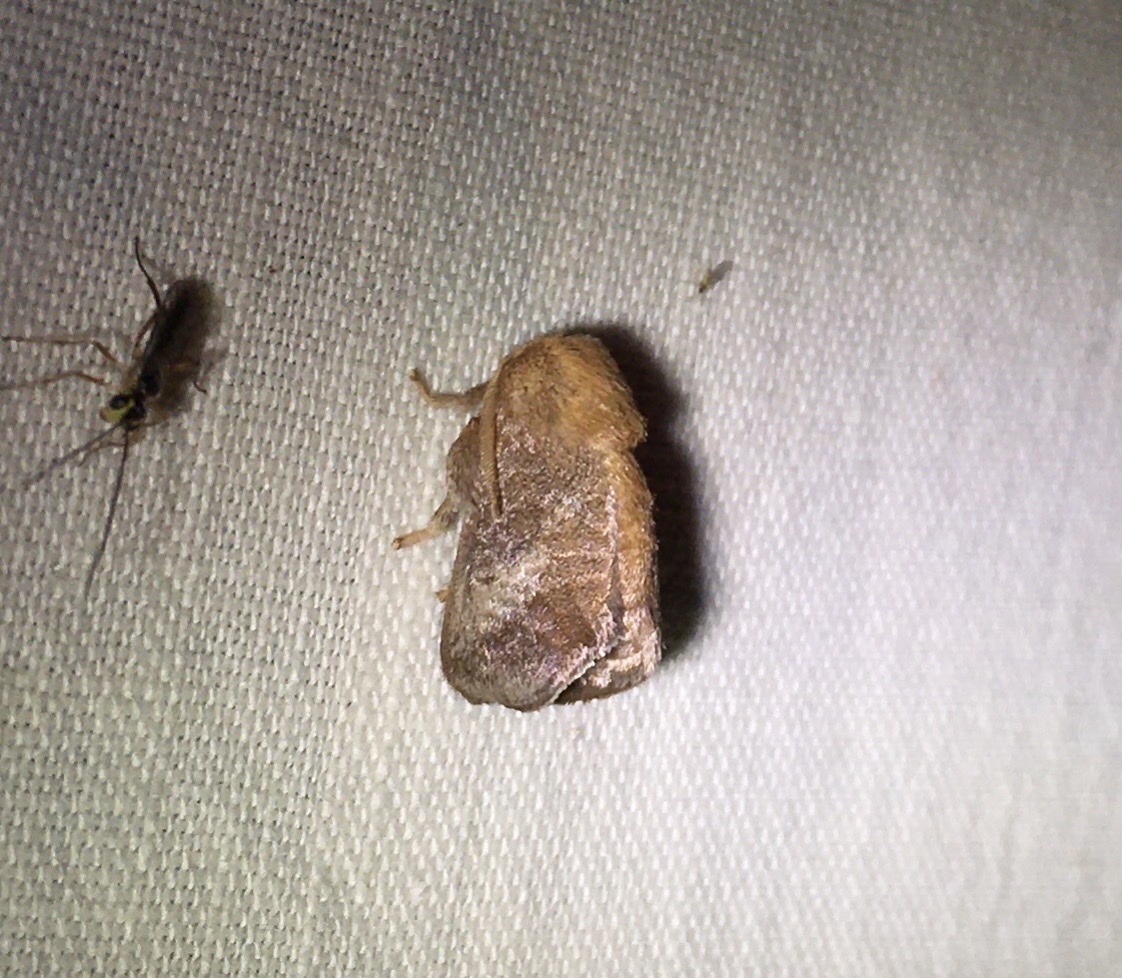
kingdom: Animalia
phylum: Arthropoda
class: Insecta
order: Lepidoptera
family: Limacodidae
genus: Isa
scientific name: Isa textula
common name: Crowned slug moth
